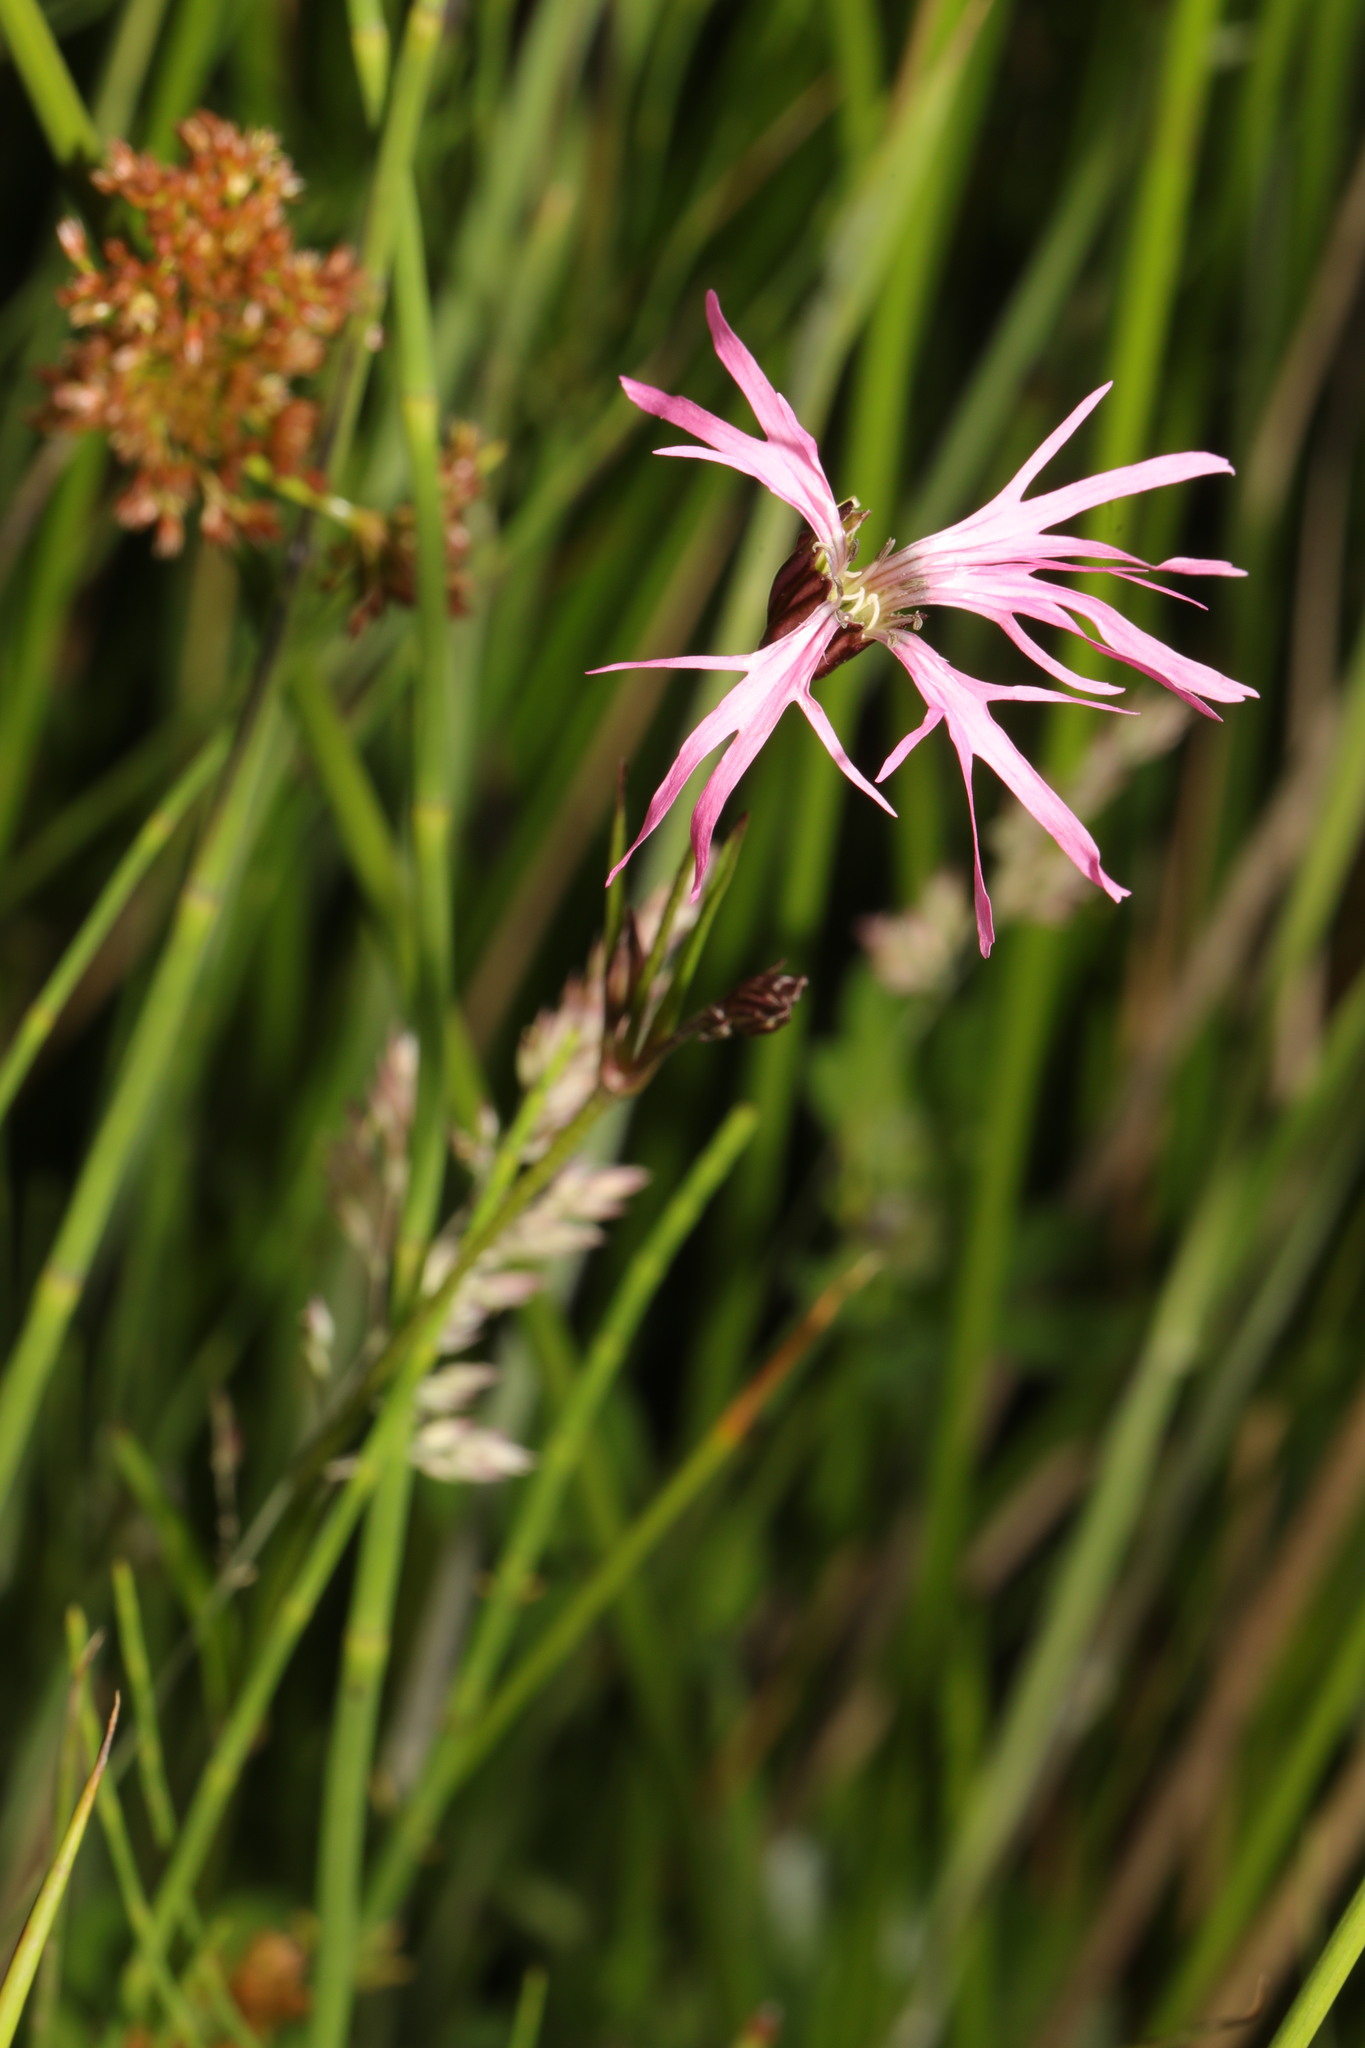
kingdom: Plantae
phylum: Tracheophyta
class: Magnoliopsida
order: Caryophyllales
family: Caryophyllaceae
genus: Silene
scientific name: Silene flos-cuculi
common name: Ragged-robin
